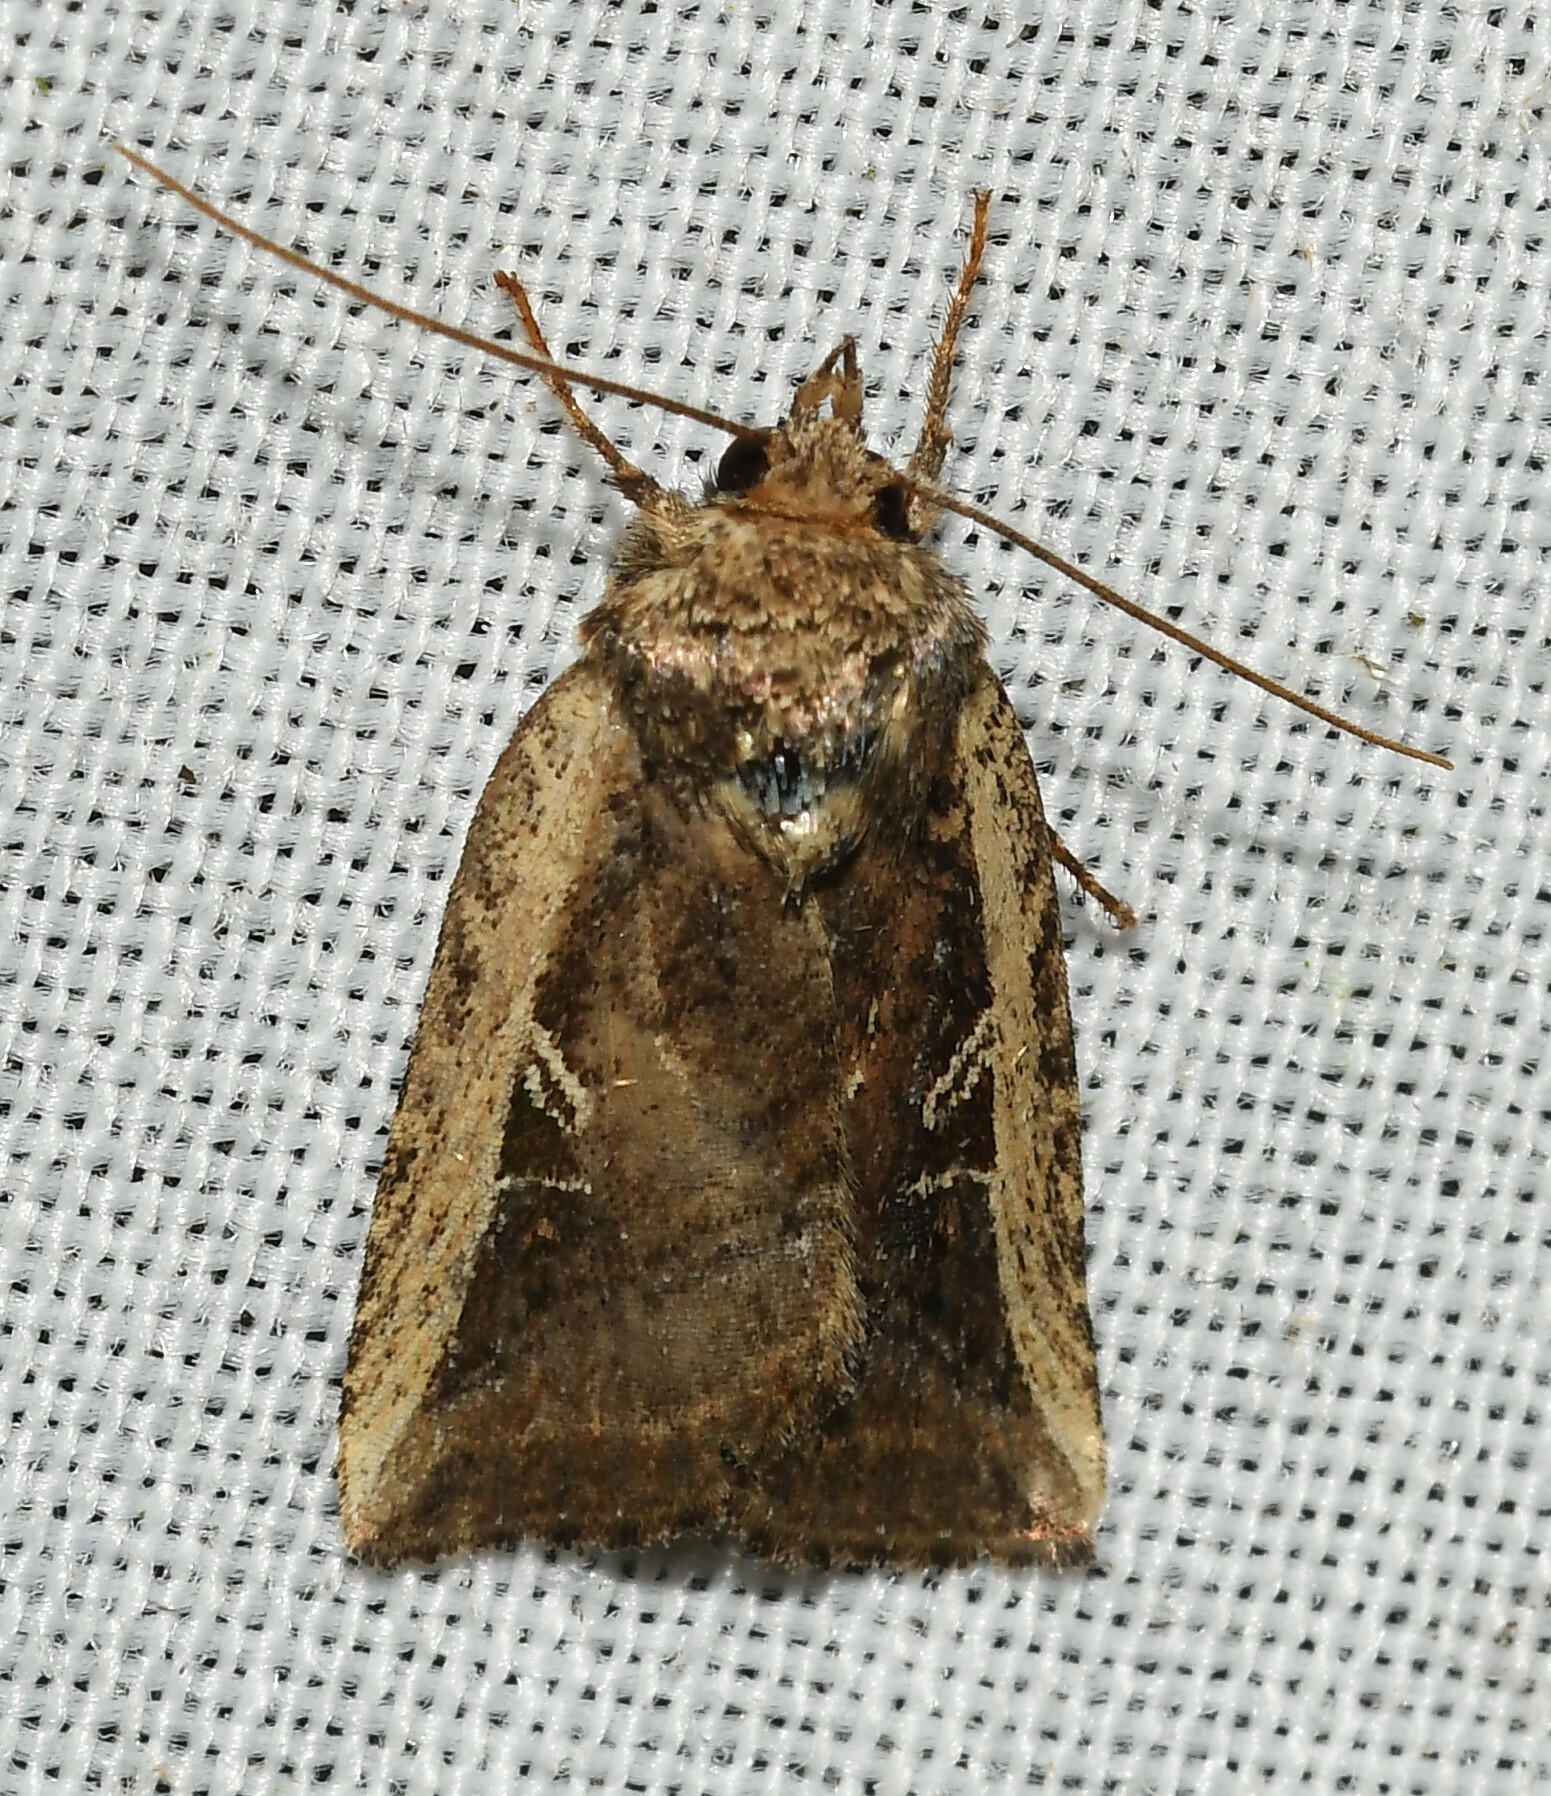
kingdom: Animalia
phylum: Arthropoda
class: Insecta
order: Lepidoptera
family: Noctuidae
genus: Phuphena
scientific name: Phuphena costata
